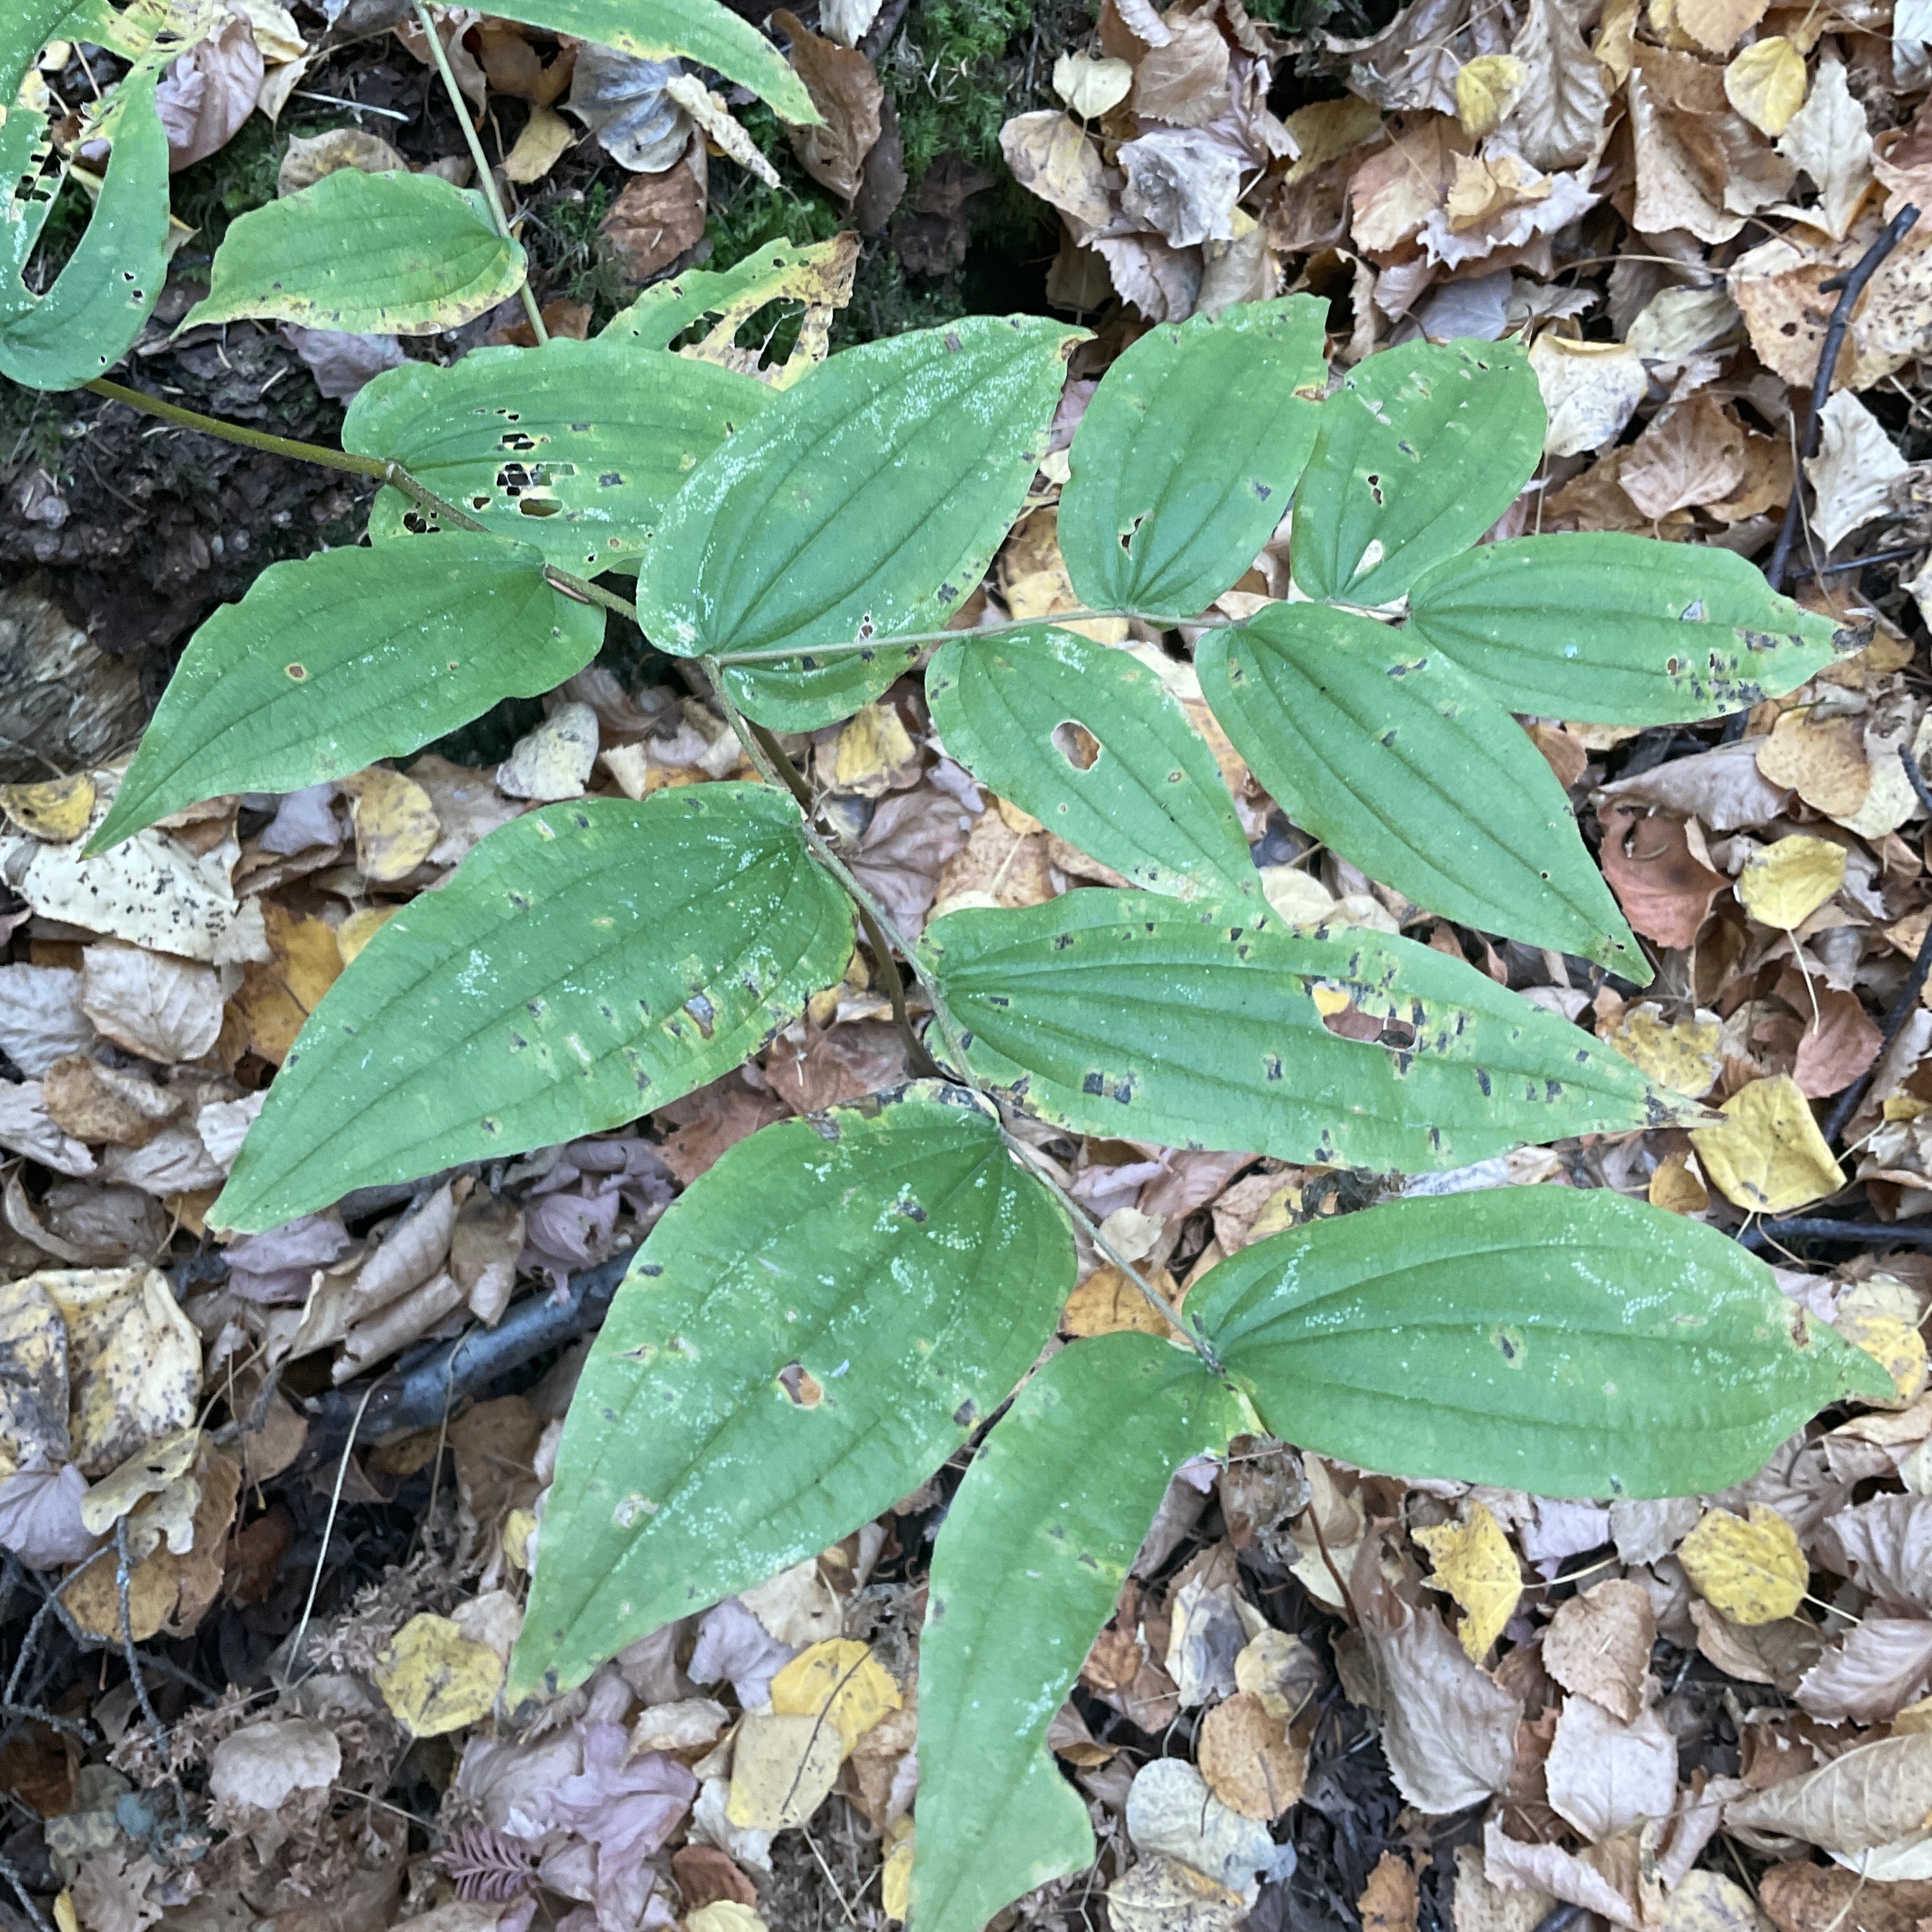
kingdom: Plantae
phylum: Tracheophyta
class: Liliopsida
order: Liliales
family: Liliaceae
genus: Prosartes
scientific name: Prosartes hookeri
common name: Fairy-bells
